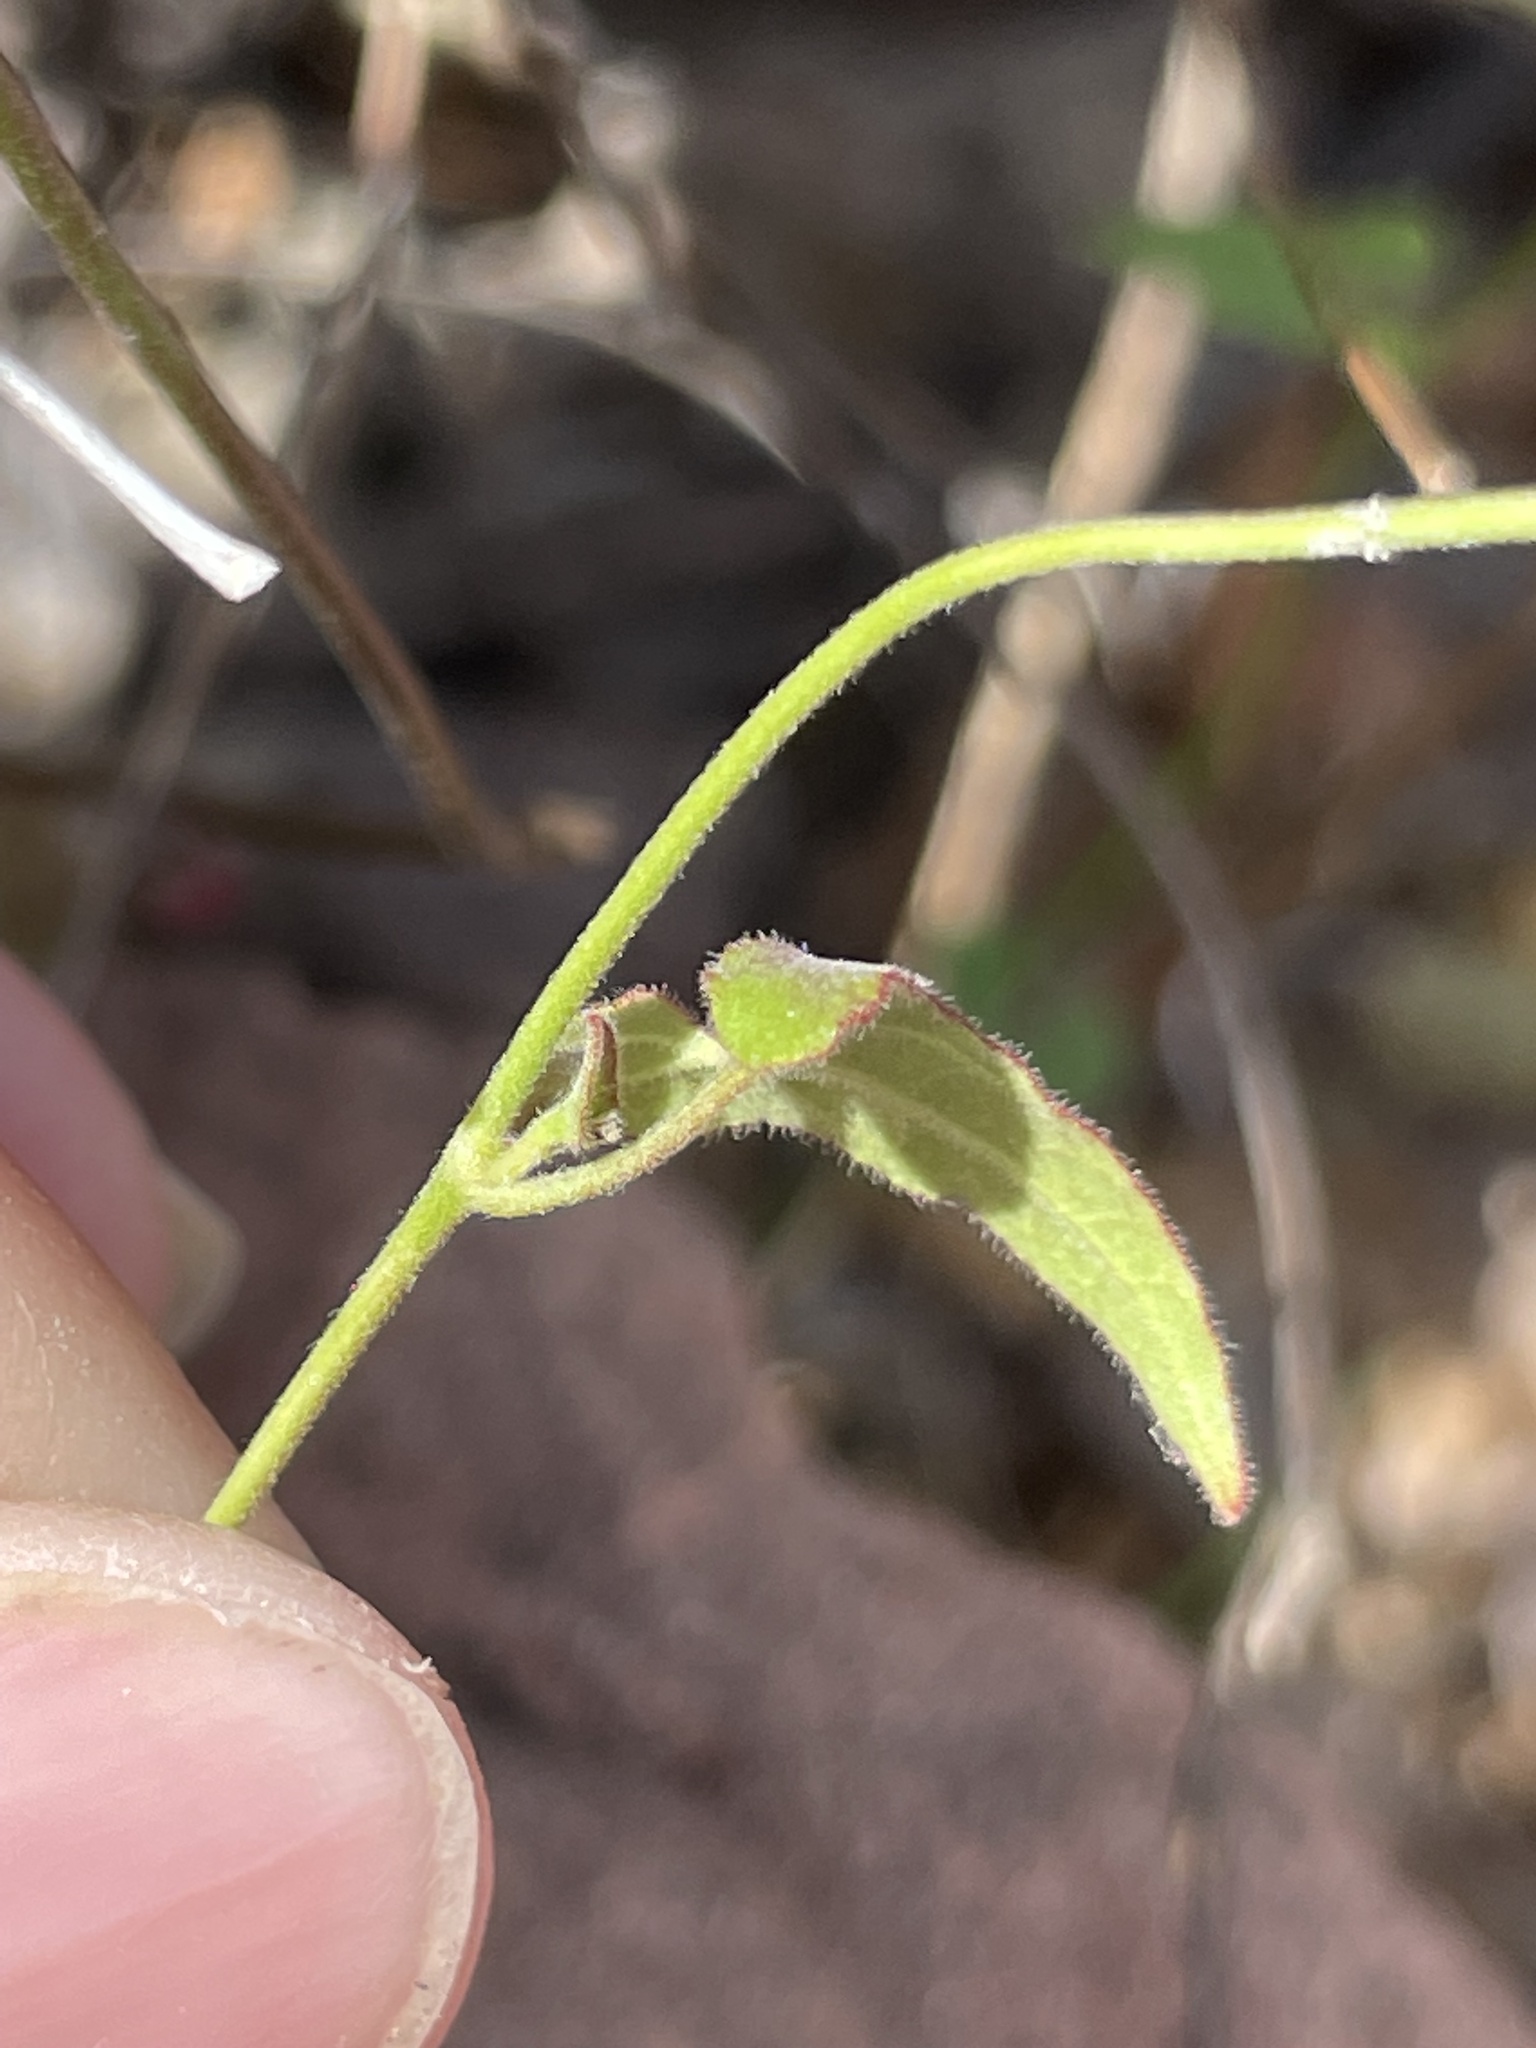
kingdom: Plantae
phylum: Tracheophyta
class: Magnoliopsida
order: Piperales
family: Aristolochiaceae
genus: Aristolochia
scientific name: Aristolochia watsonii
